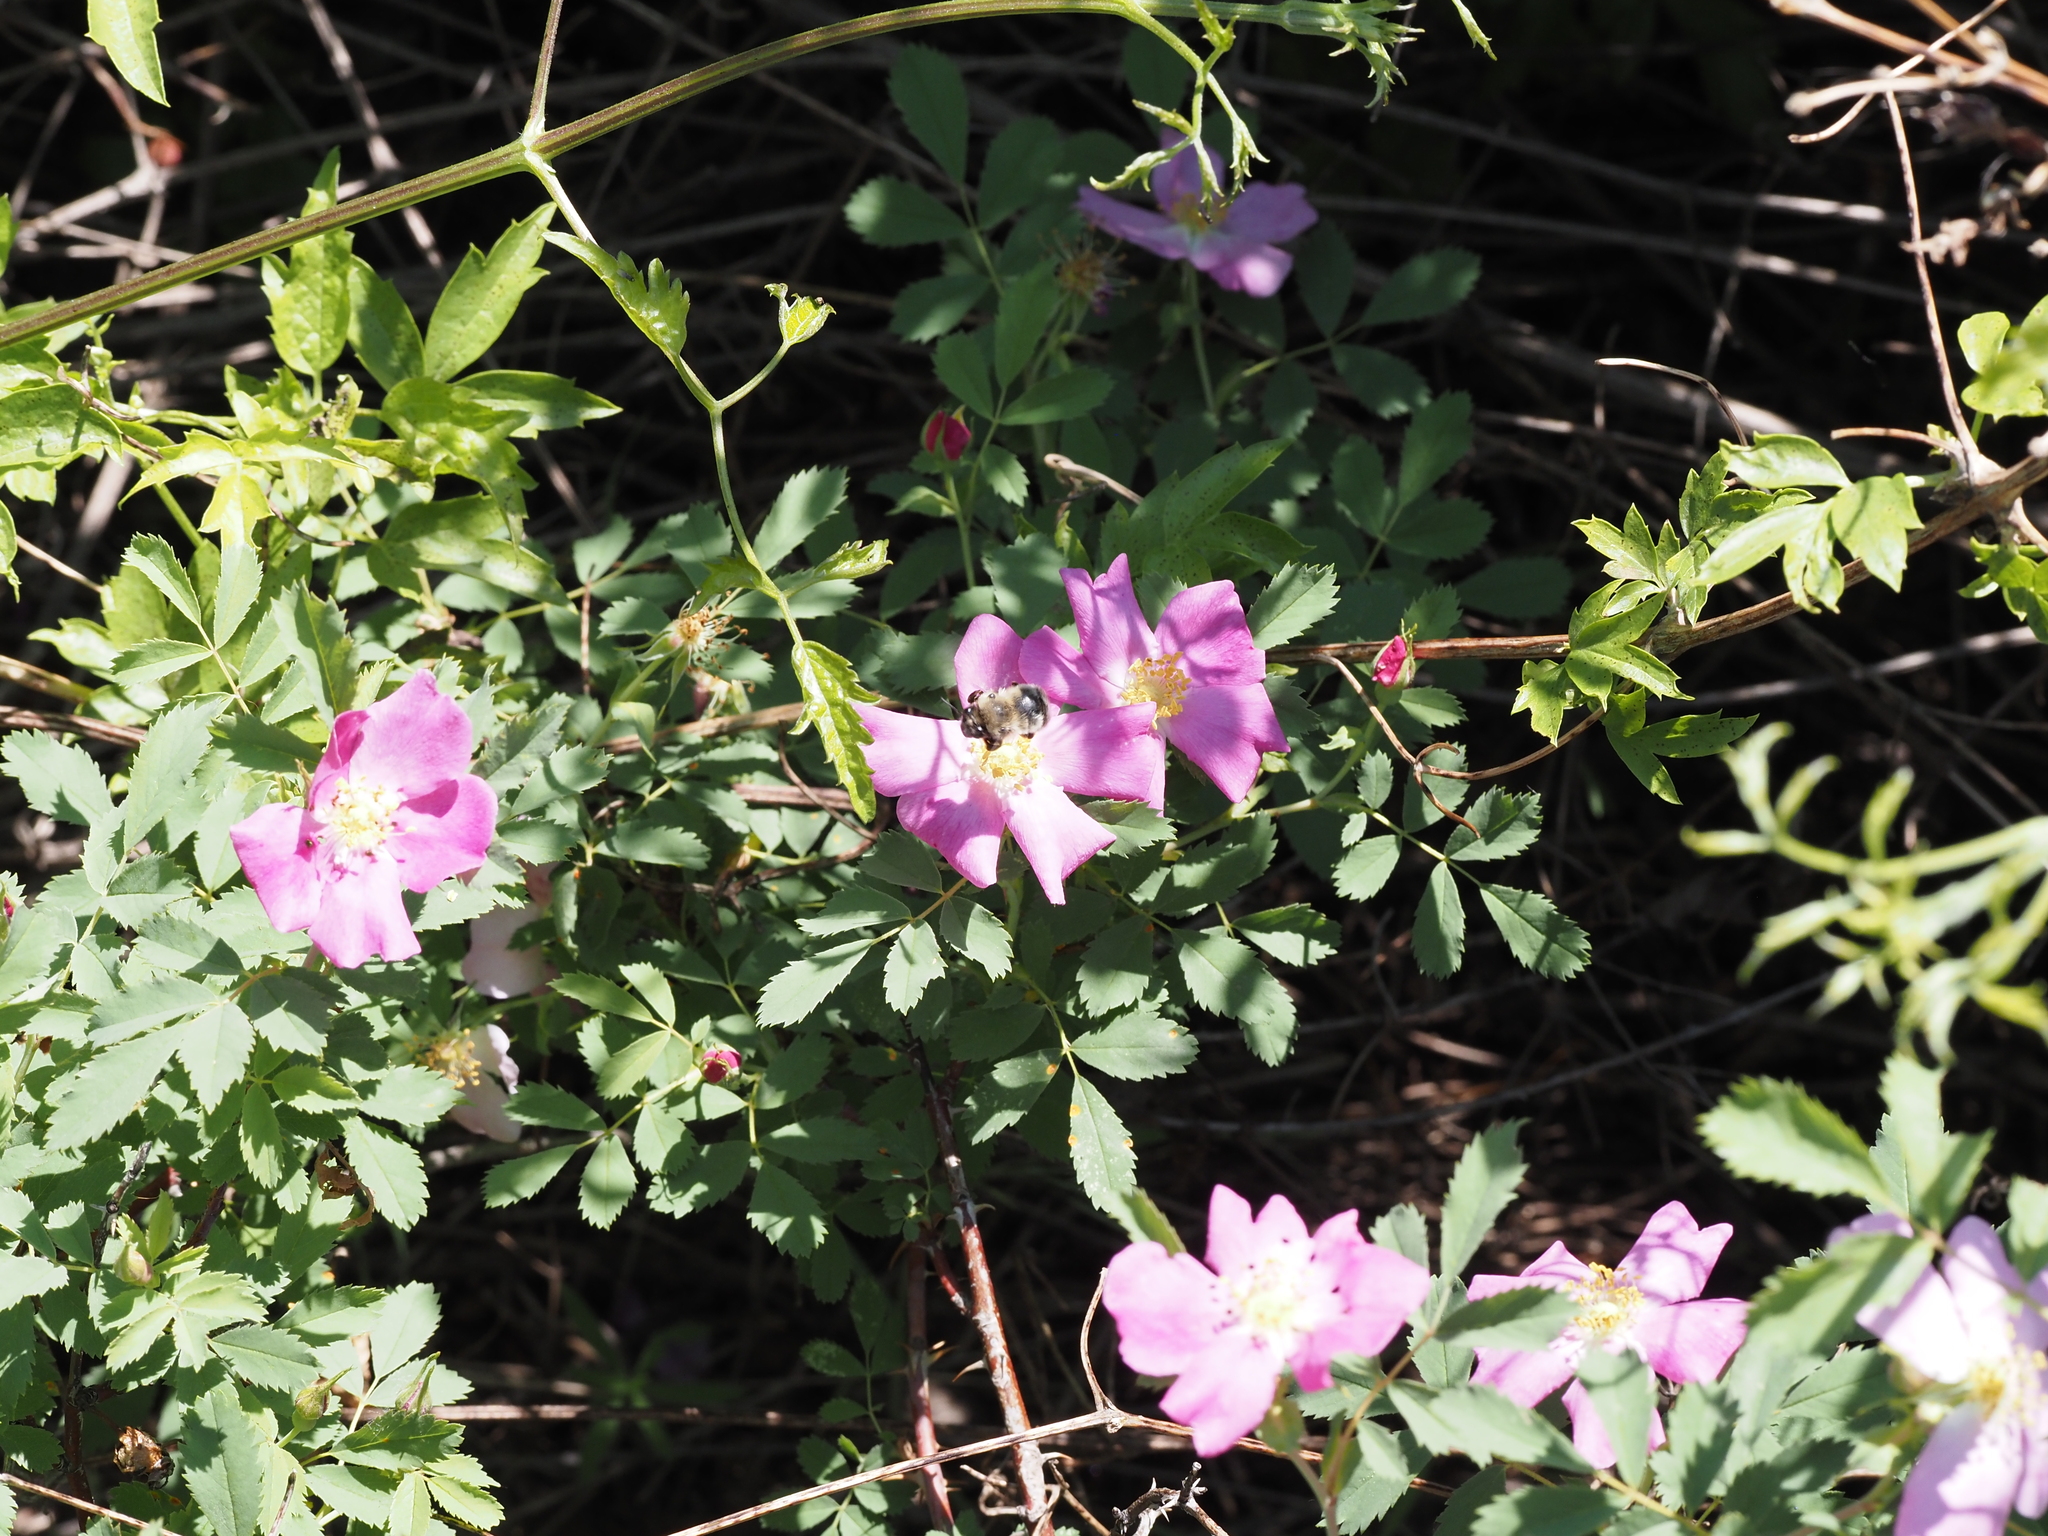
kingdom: Animalia
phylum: Arthropoda
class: Insecta
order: Hymenoptera
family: Apidae
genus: Habropoda
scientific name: Habropoda cineraria
